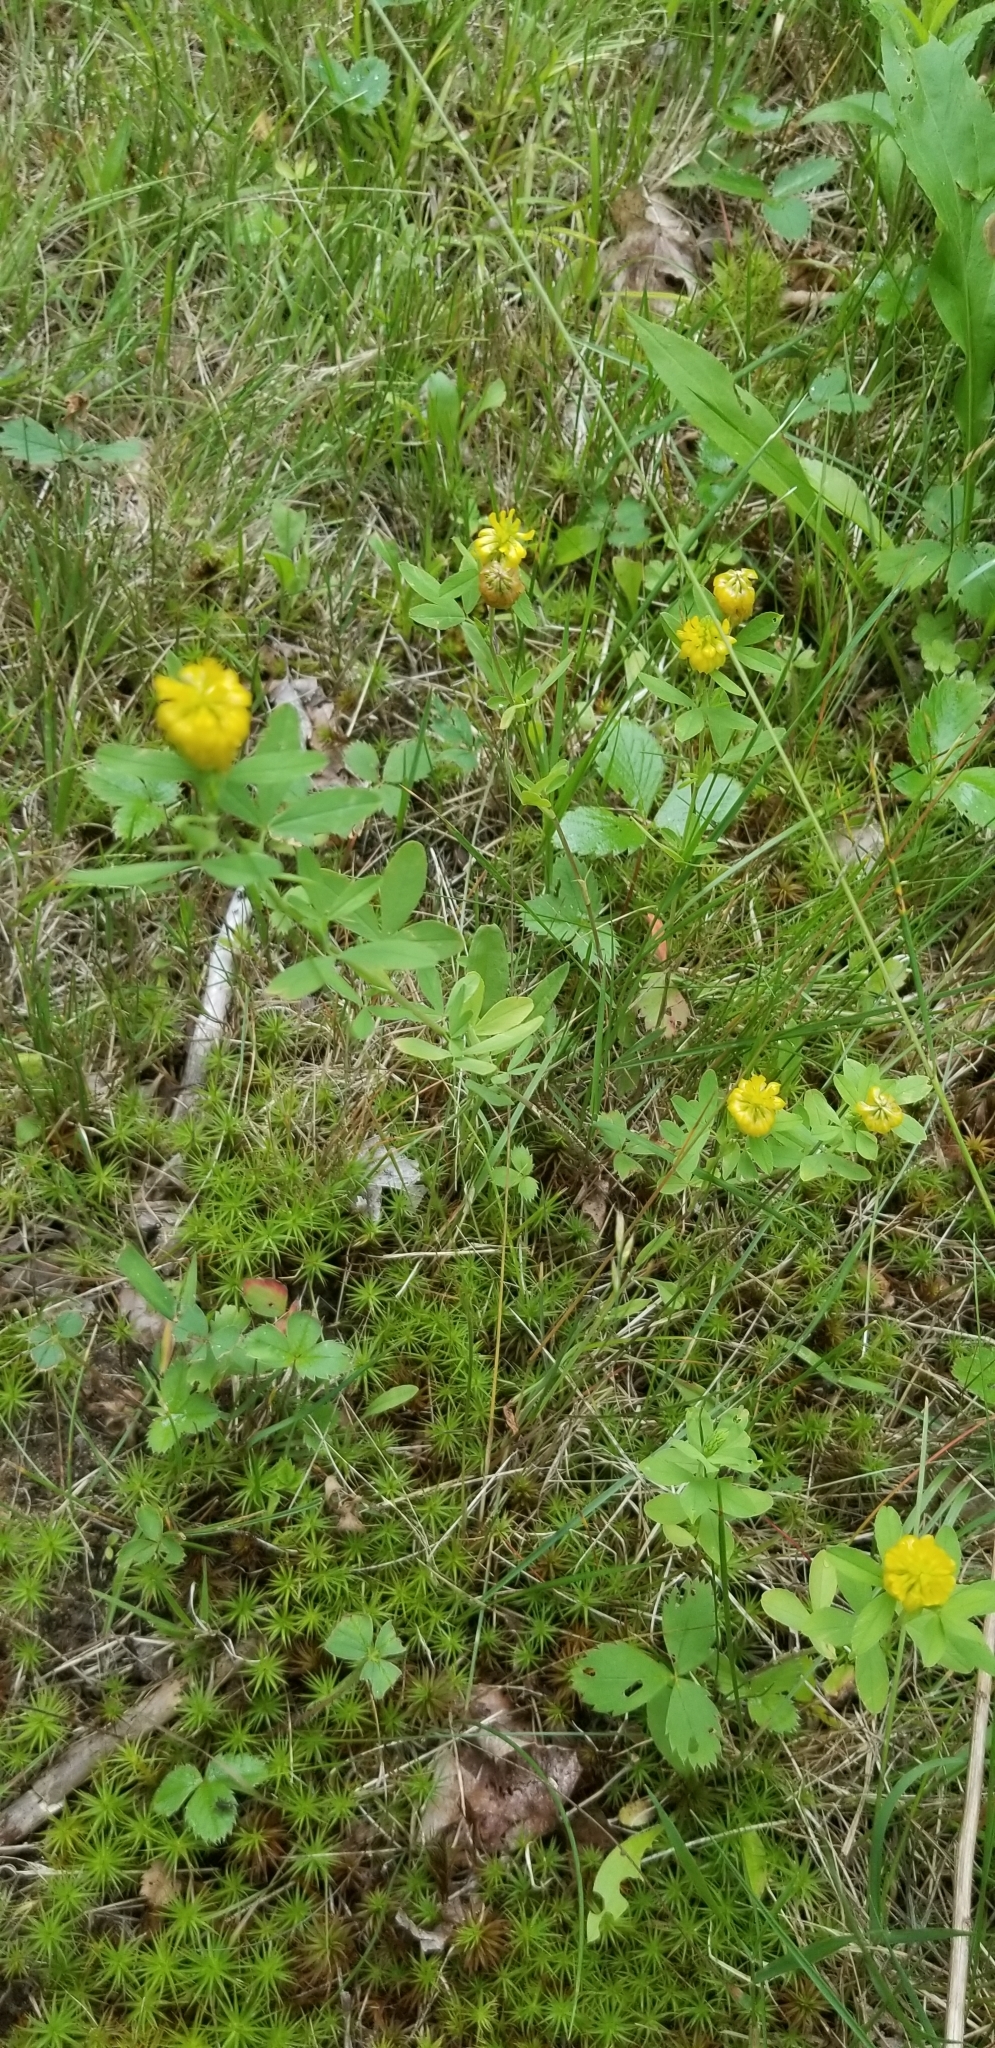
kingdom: Plantae
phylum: Tracheophyta
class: Magnoliopsida
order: Fabales
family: Fabaceae
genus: Trifolium
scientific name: Trifolium aureum
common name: Golden clover
